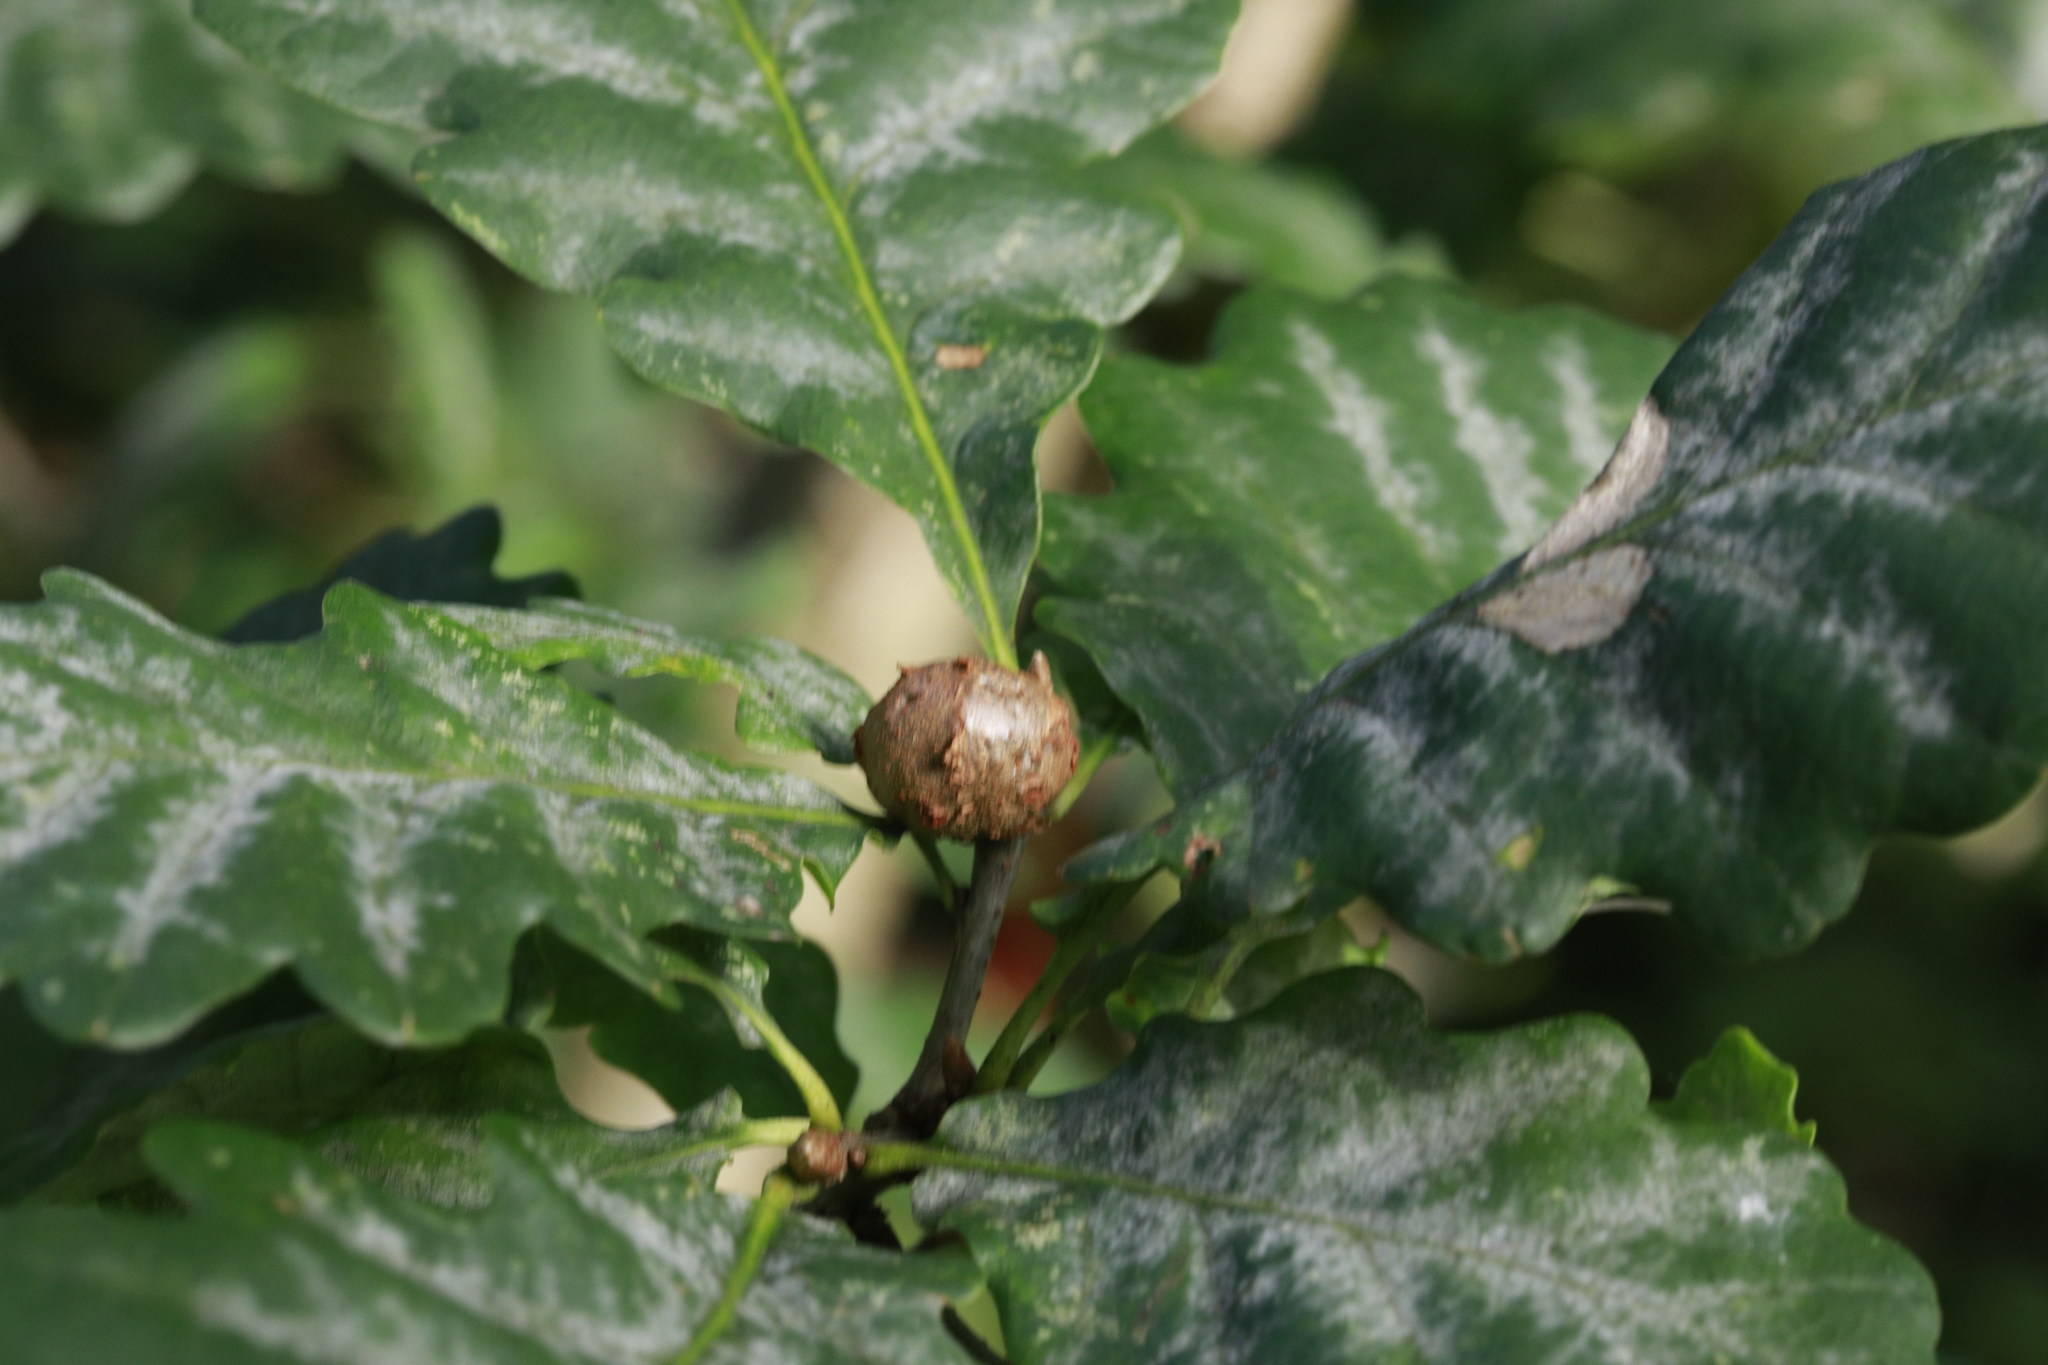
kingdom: Animalia
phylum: Arthropoda
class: Insecta
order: Hymenoptera
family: Cynipidae
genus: Andricus
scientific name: Andricus lignicolus
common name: Cola-nut gall
